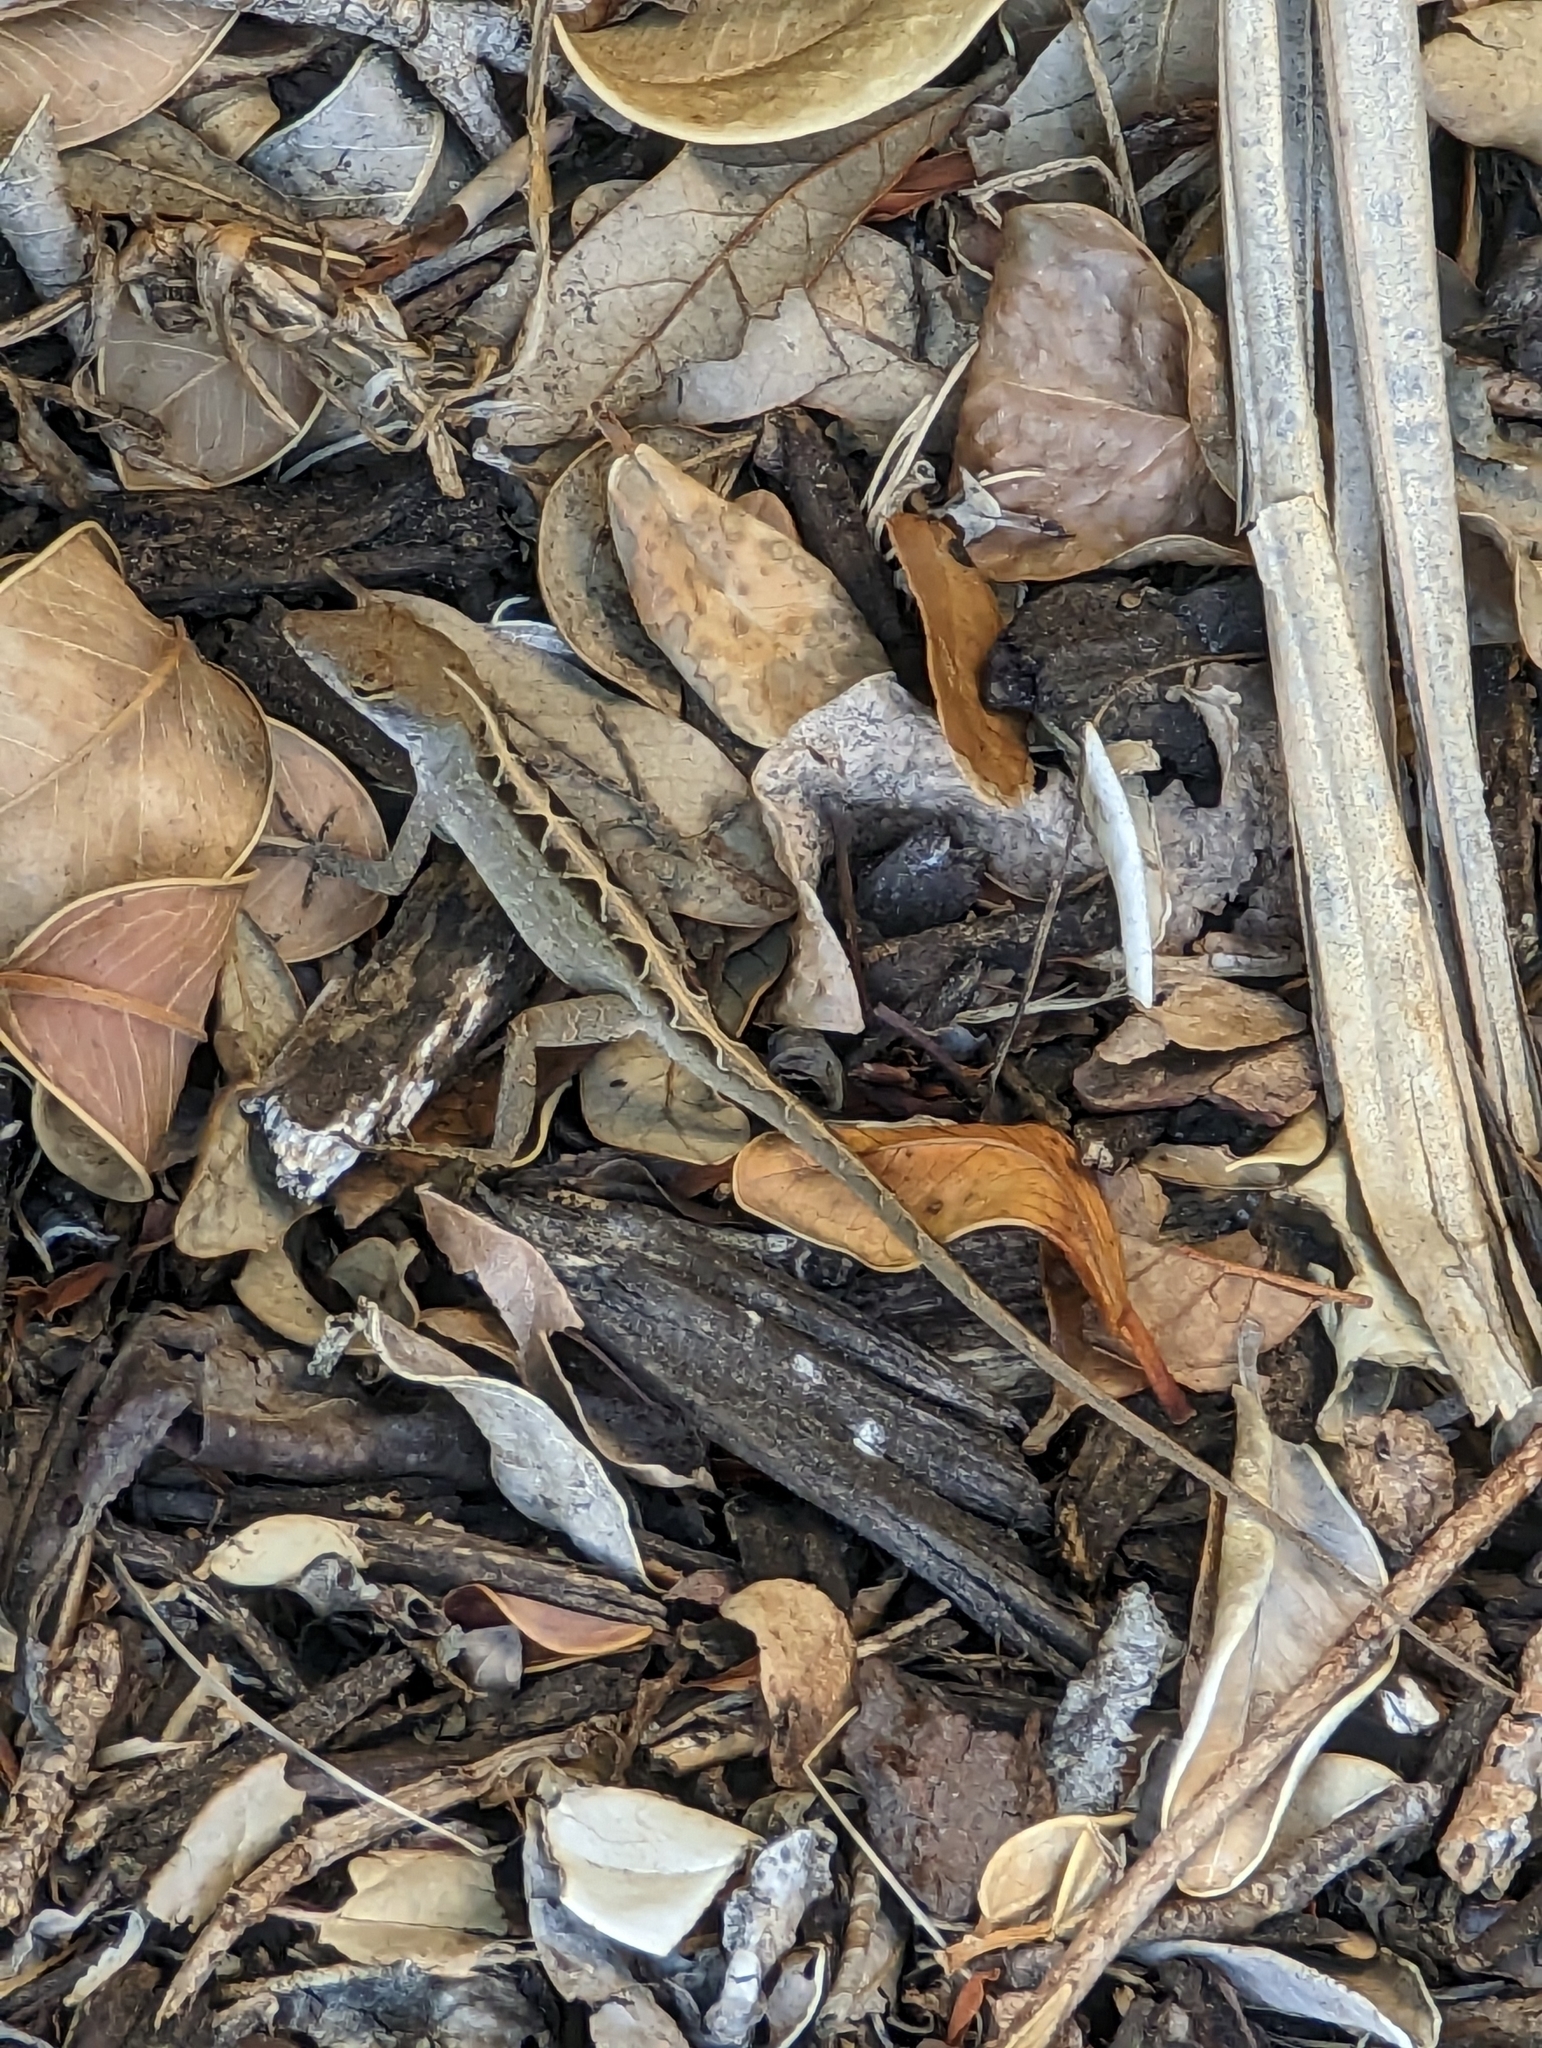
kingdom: Animalia
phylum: Chordata
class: Squamata
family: Dactyloidae
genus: Anolis
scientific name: Anolis sagrei
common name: Brown anole
